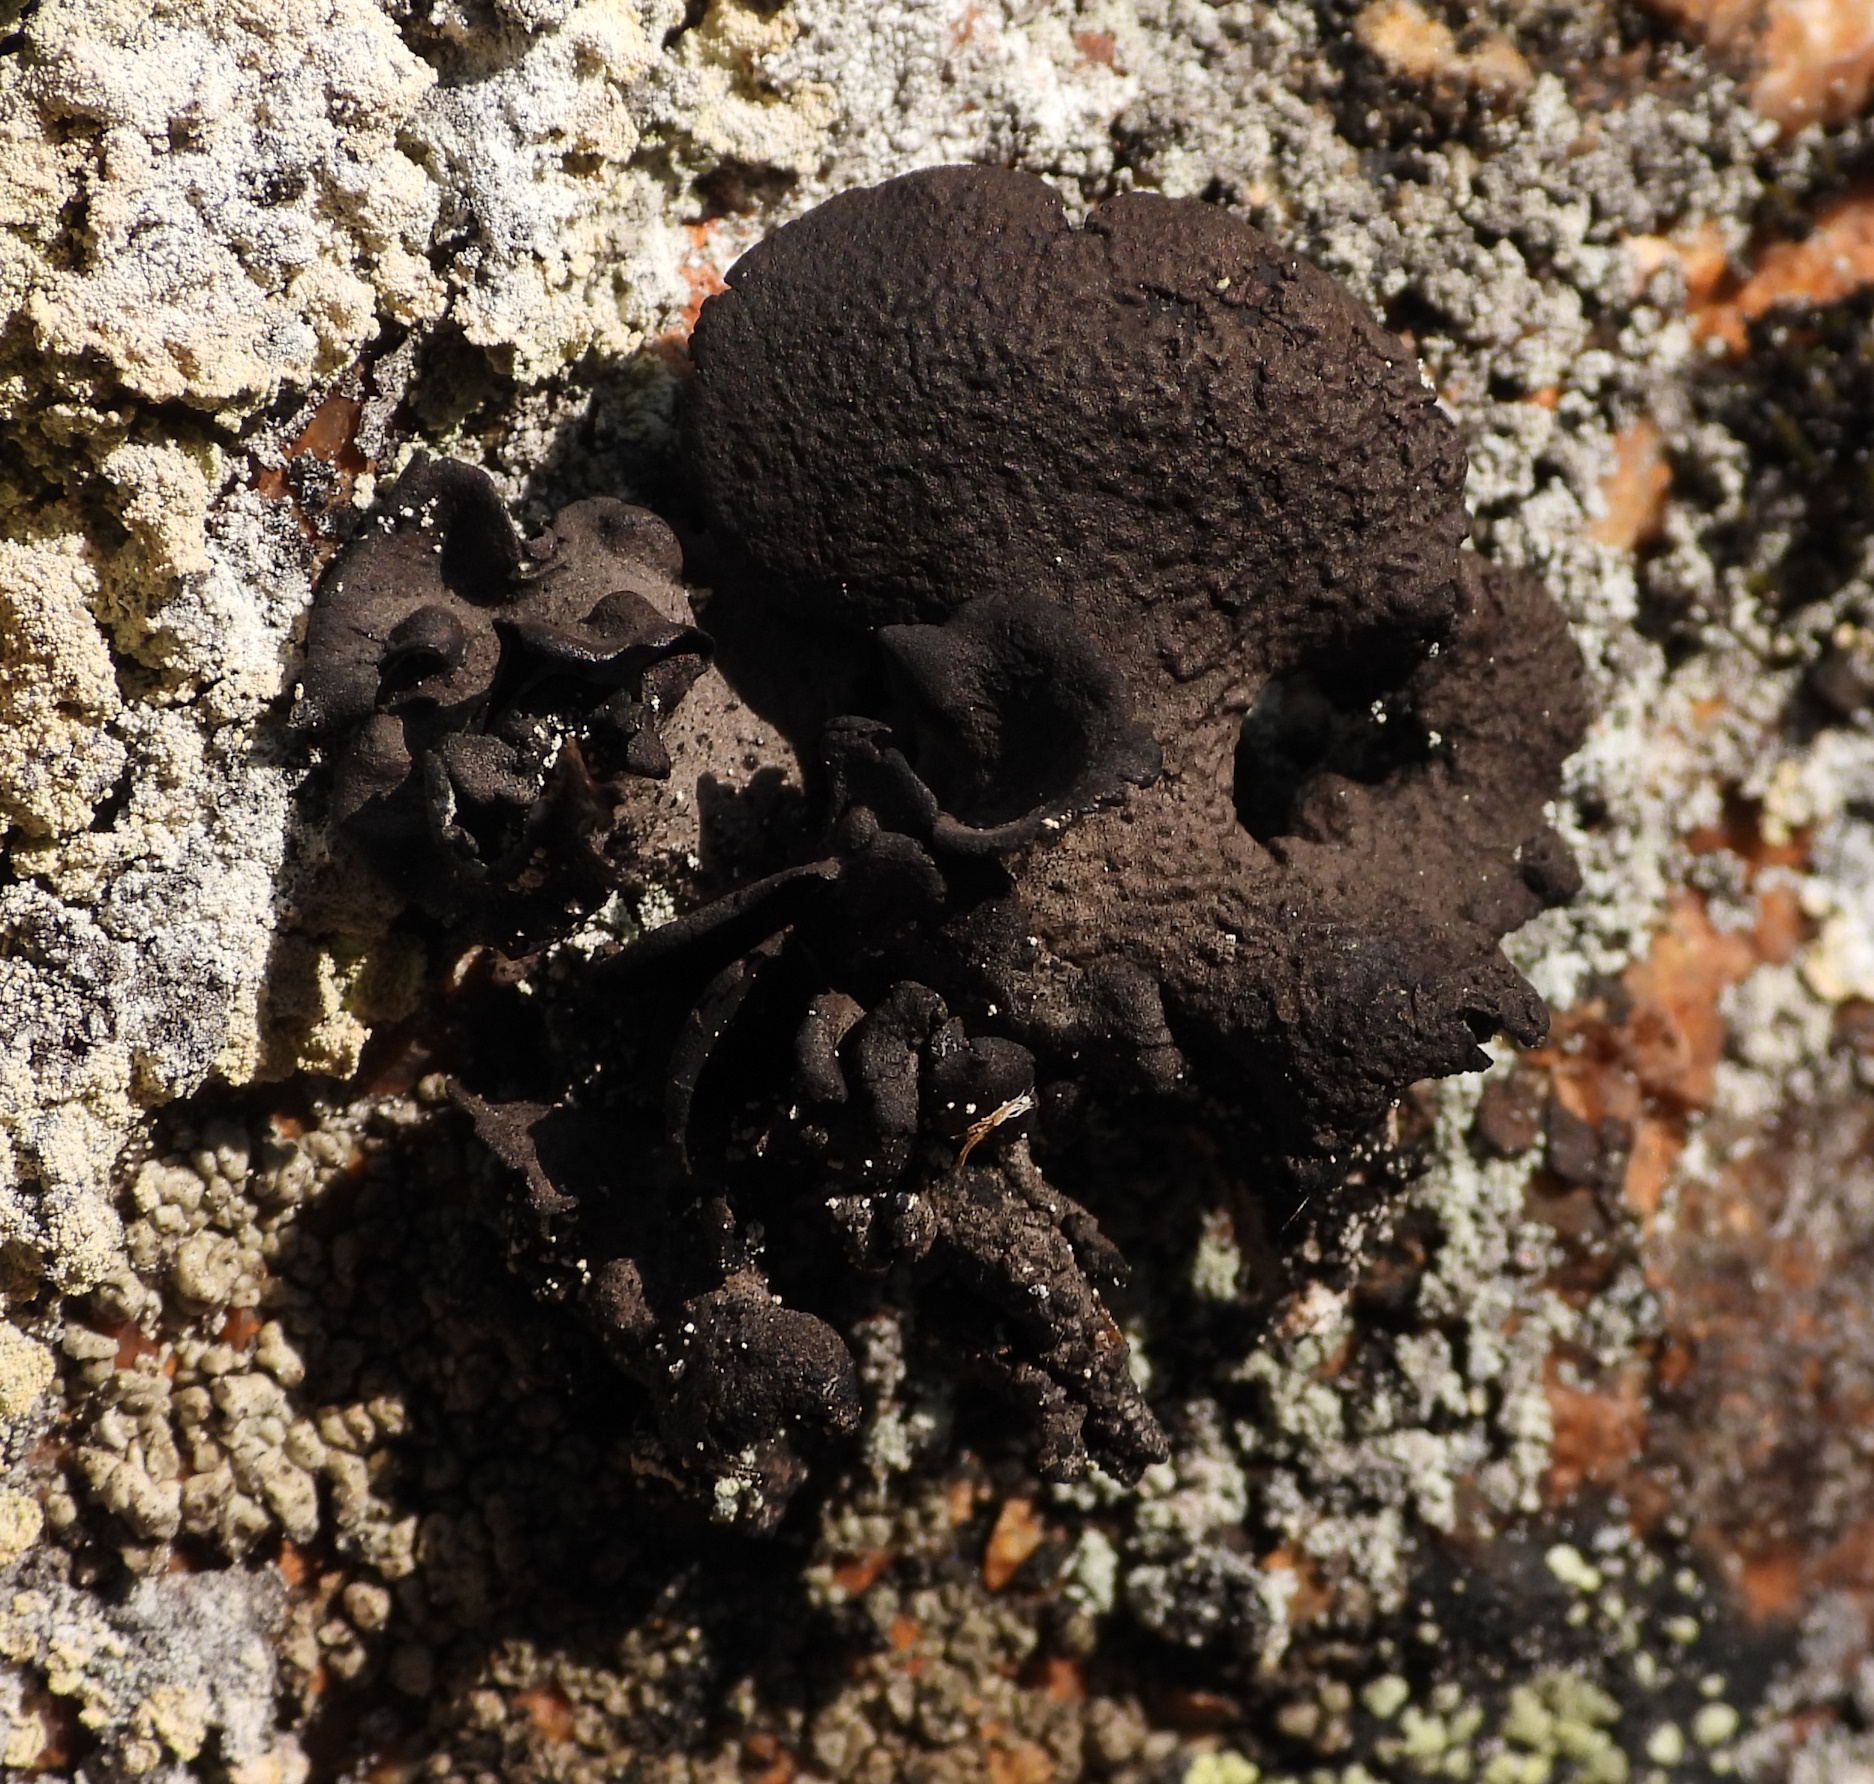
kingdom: Fungi
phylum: Ascomycota
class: Lecanoromycetes
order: Umbilicariales
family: Umbilicariaceae
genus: Umbilicaria
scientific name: Umbilicaria nylanderiana
